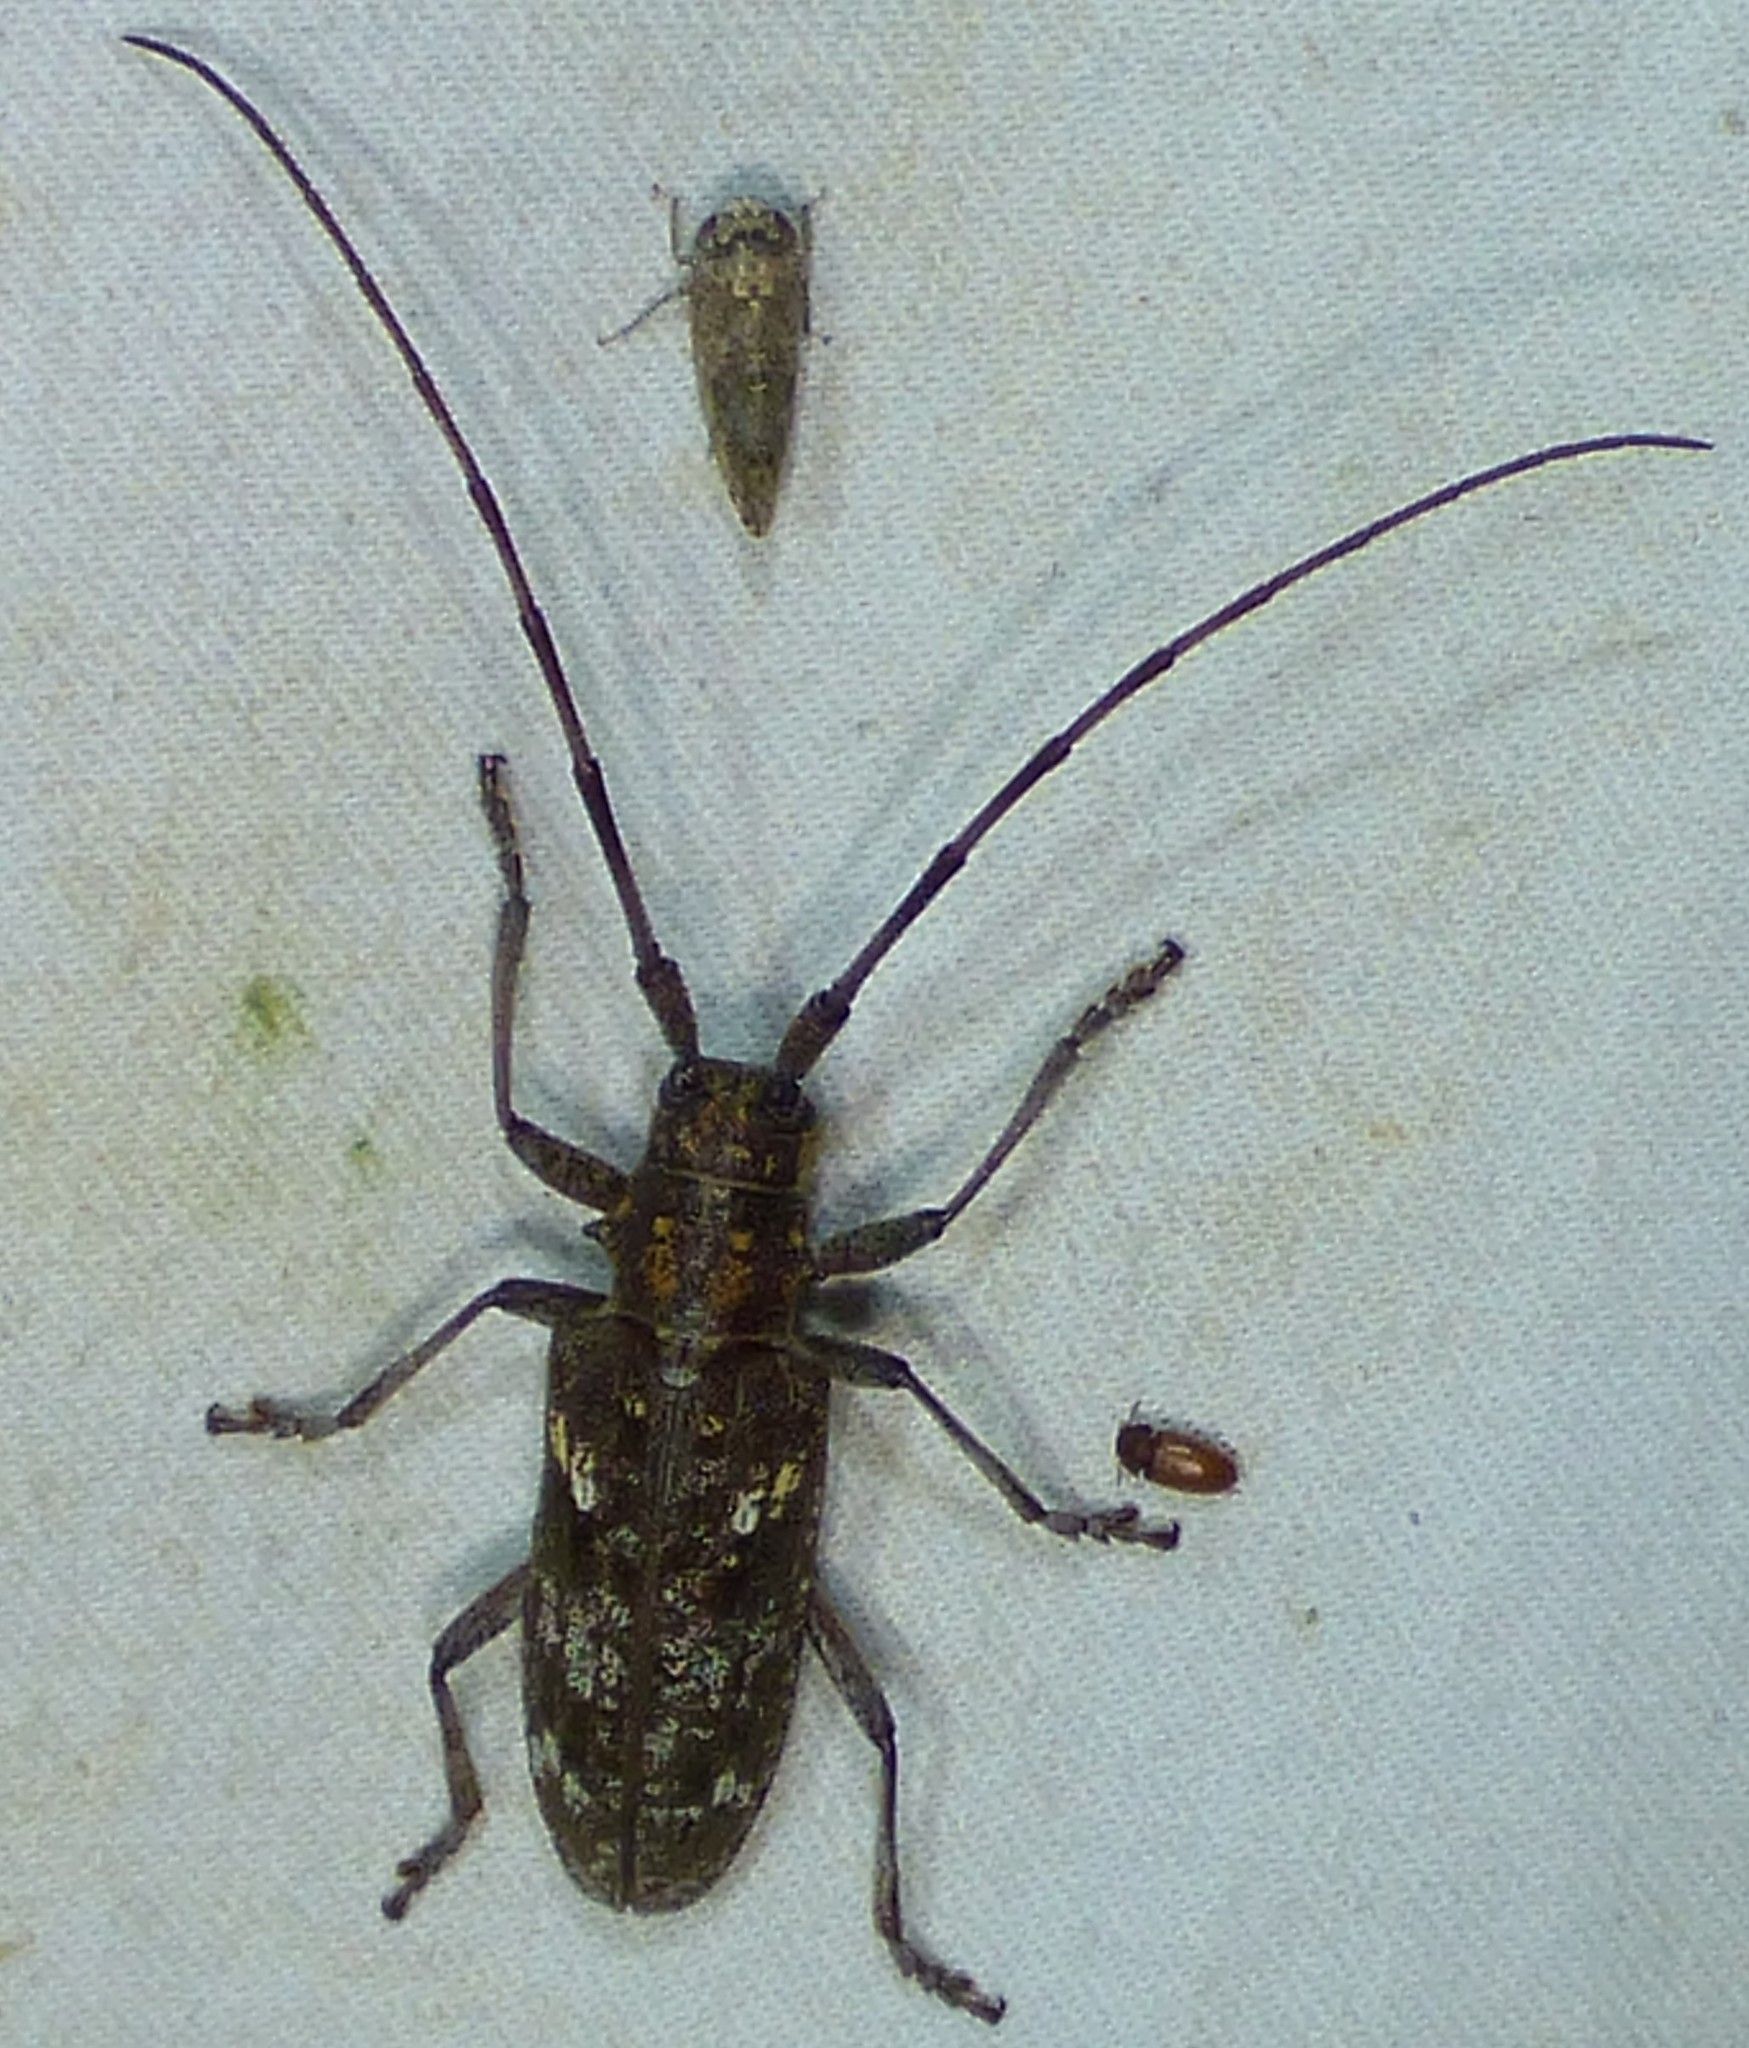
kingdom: Animalia
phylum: Arthropoda
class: Insecta
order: Coleoptera
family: Cerambycidae
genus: Monochamus
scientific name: Monochamus carolinensis
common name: Carolina pine sawyer
